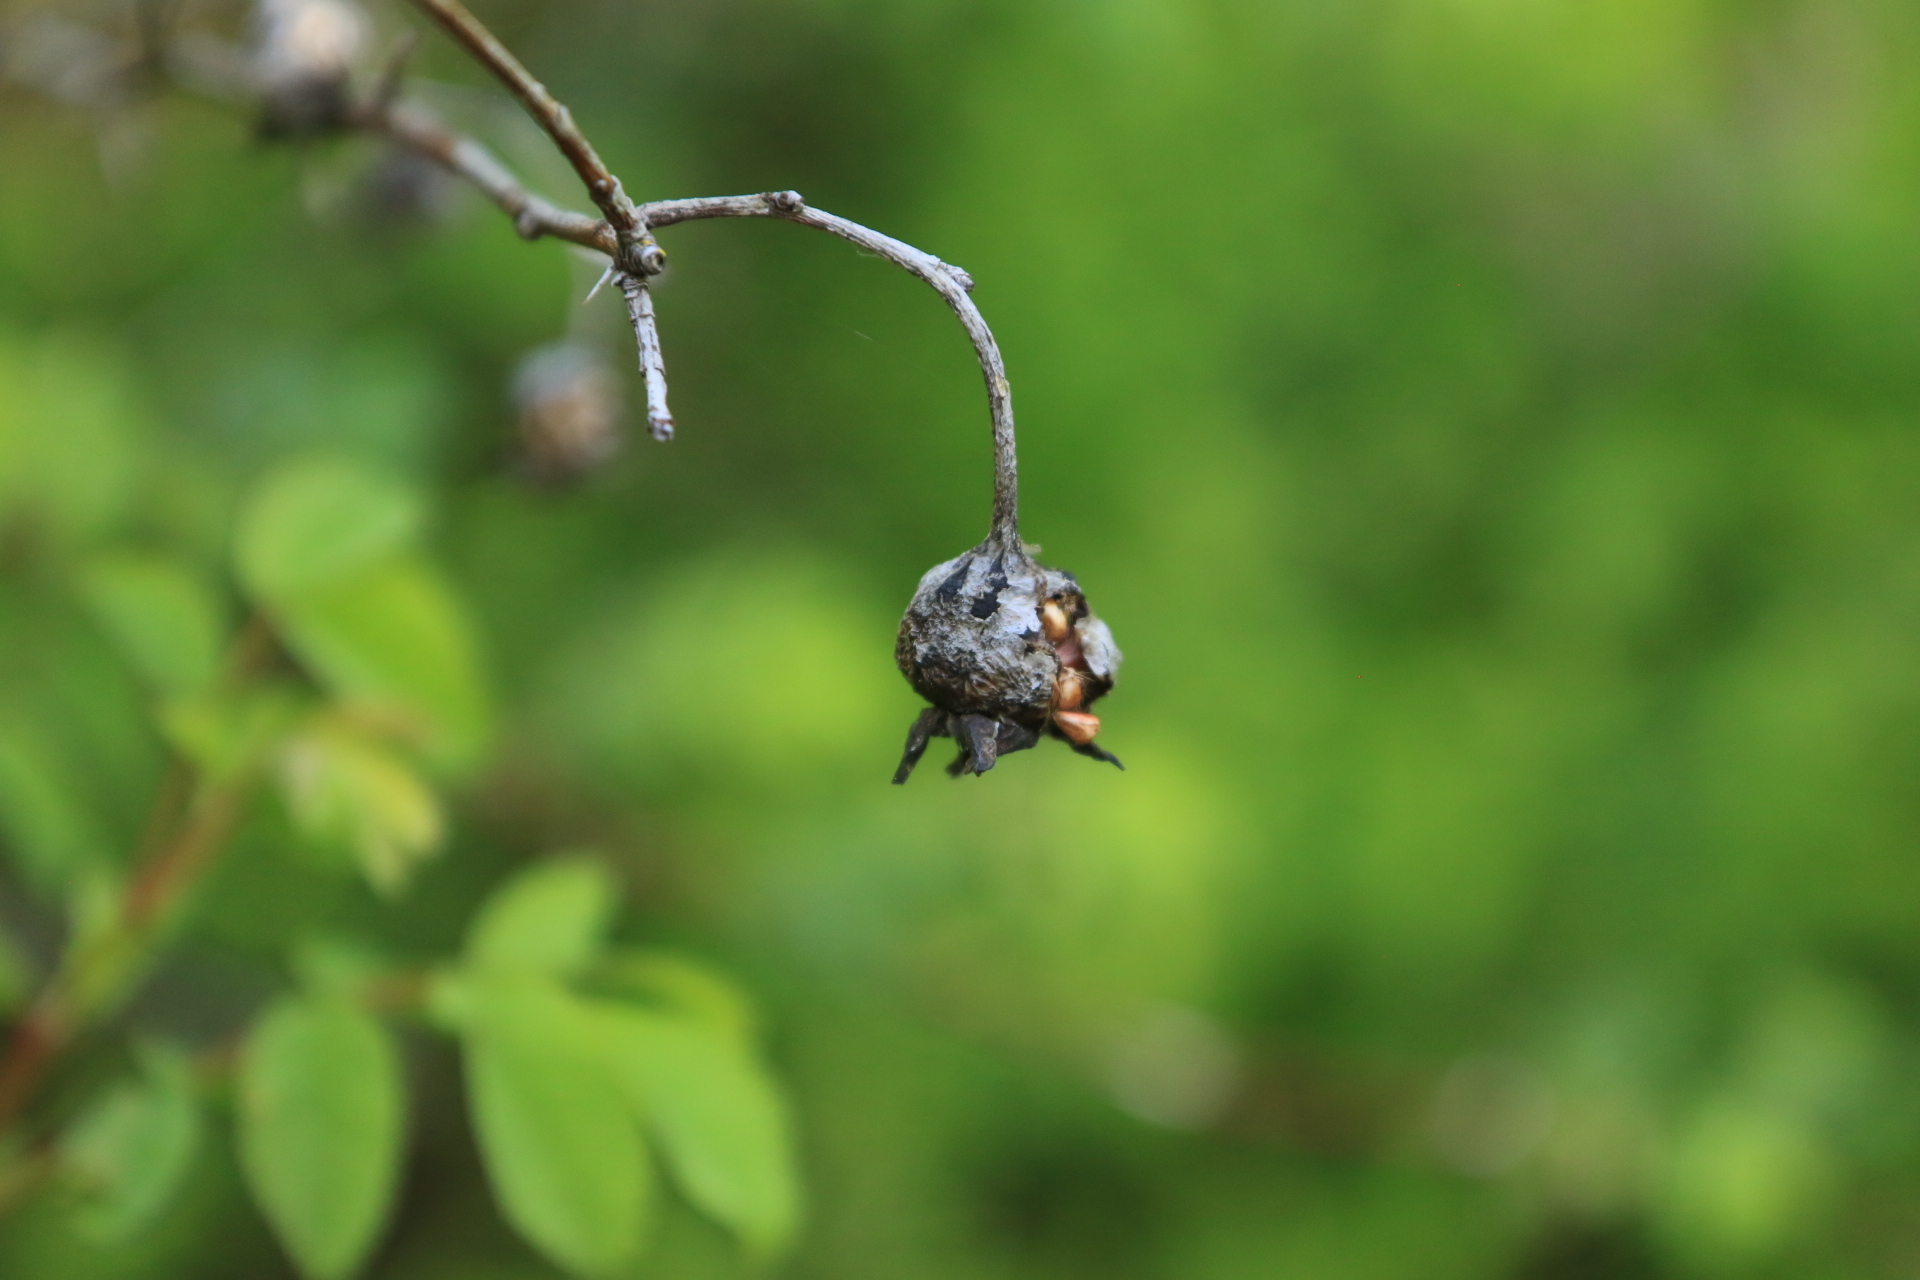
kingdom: Plantae
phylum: Tracheophyta
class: Magnoliopsida
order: Rosales
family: Rosaceae
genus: Rosa
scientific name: Rosa nutkana
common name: Nootka rose
